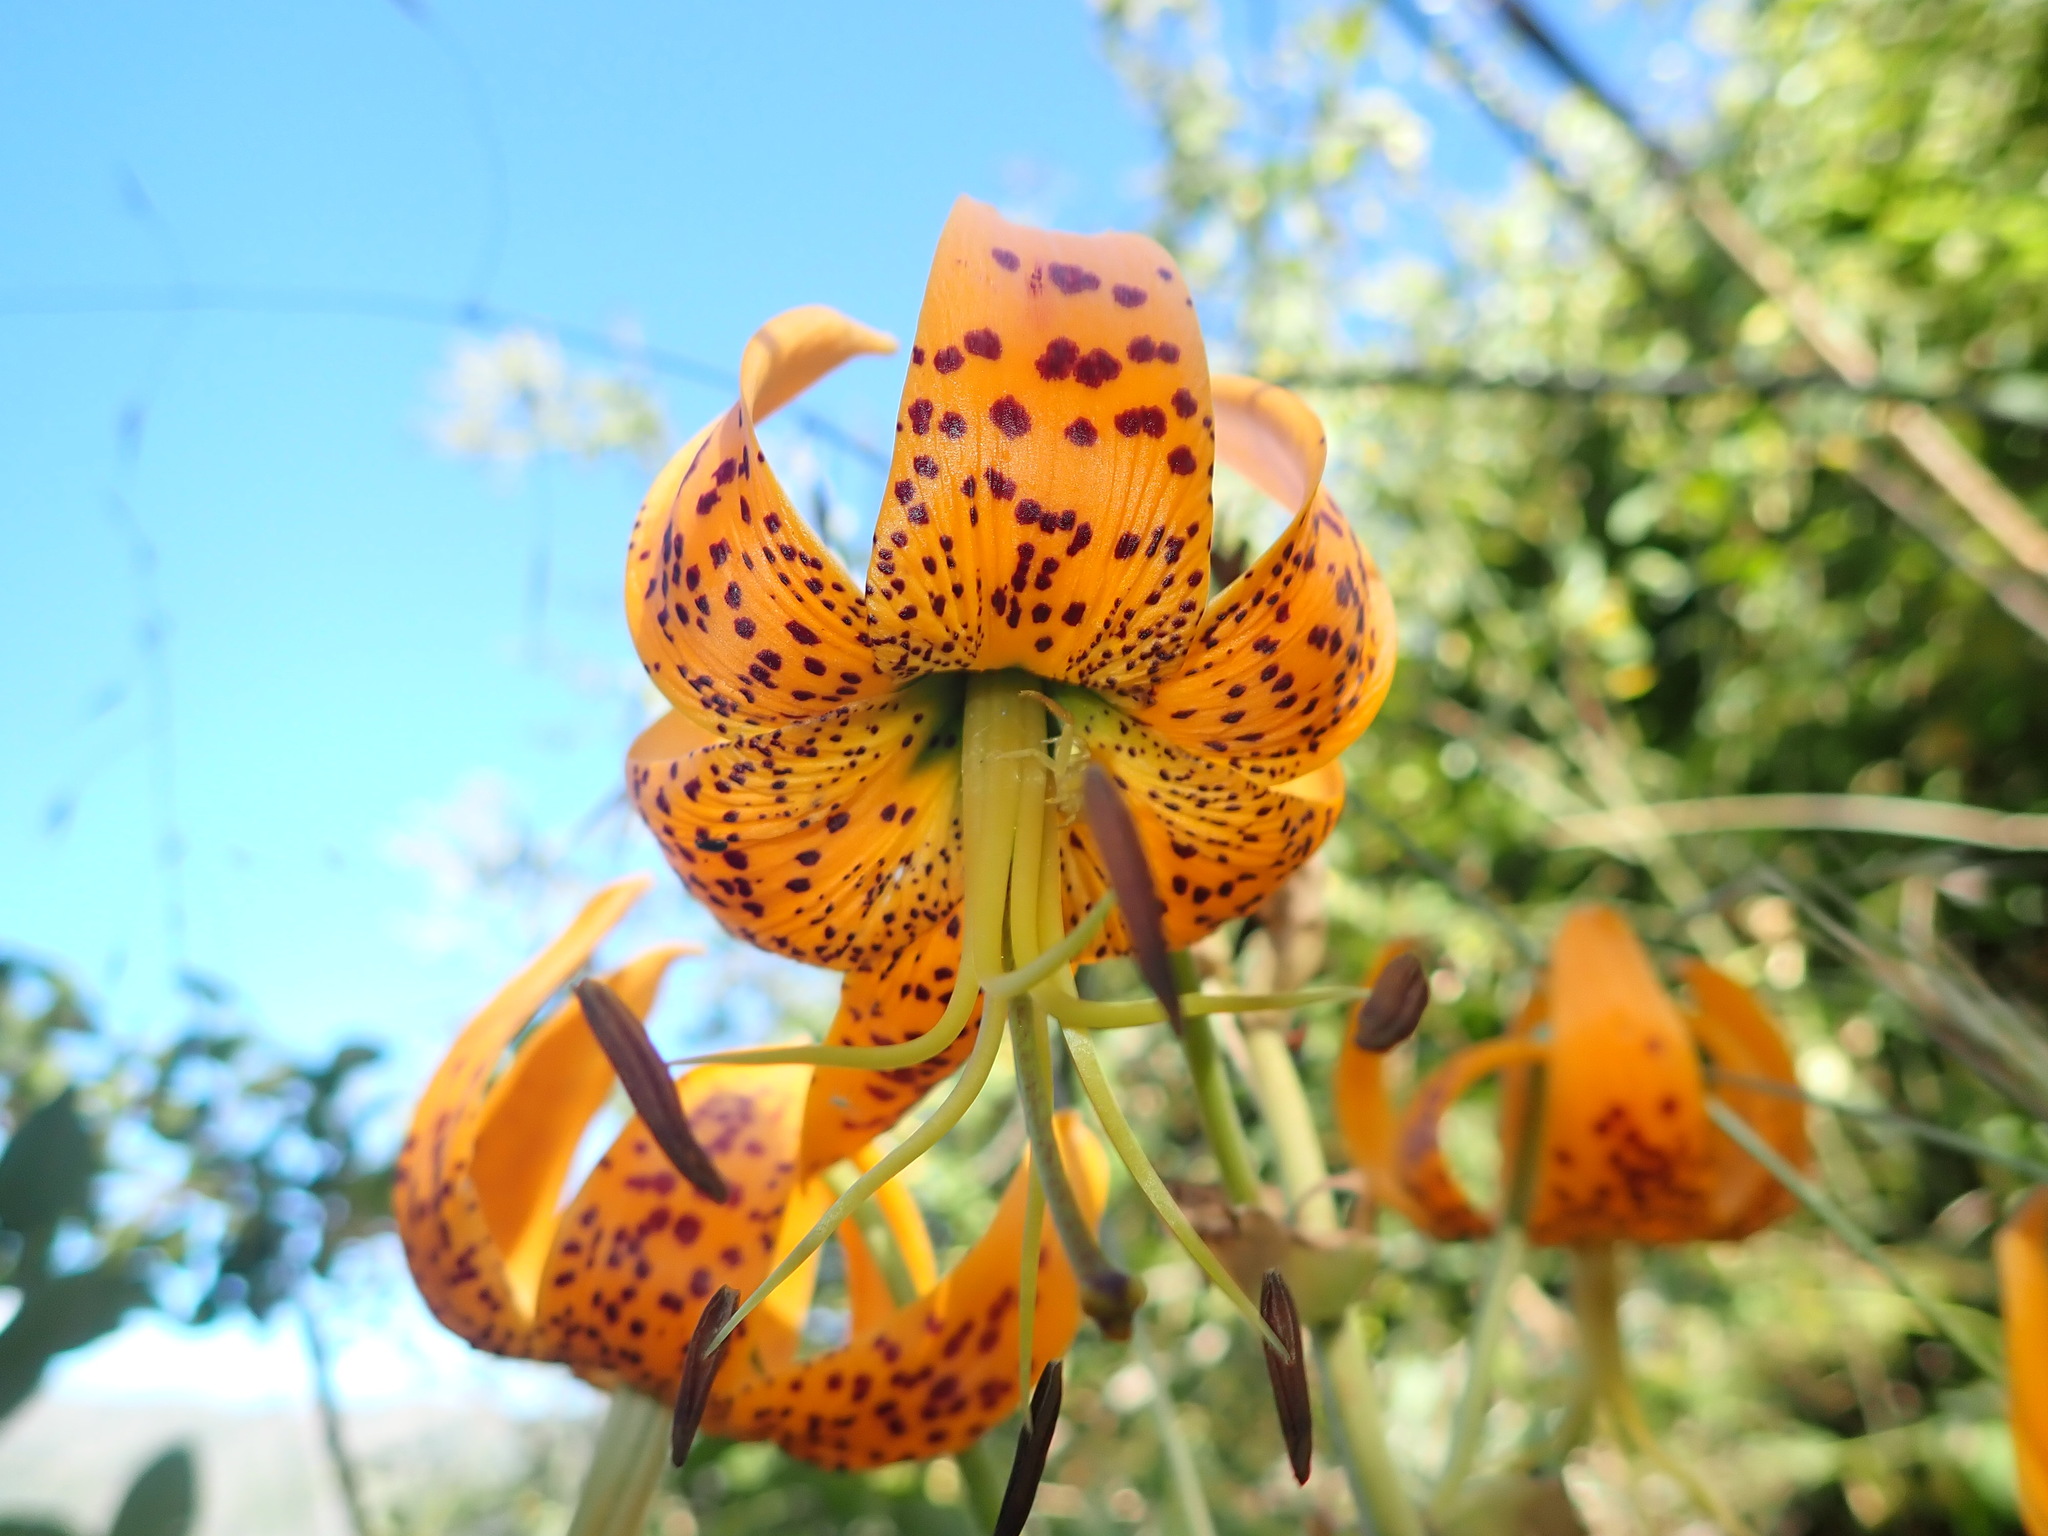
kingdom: Plantae
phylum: Tracheophyta
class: Liliopsida
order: Liliales
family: Liliaceae
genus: Lilium
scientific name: Lilium humboldtii
